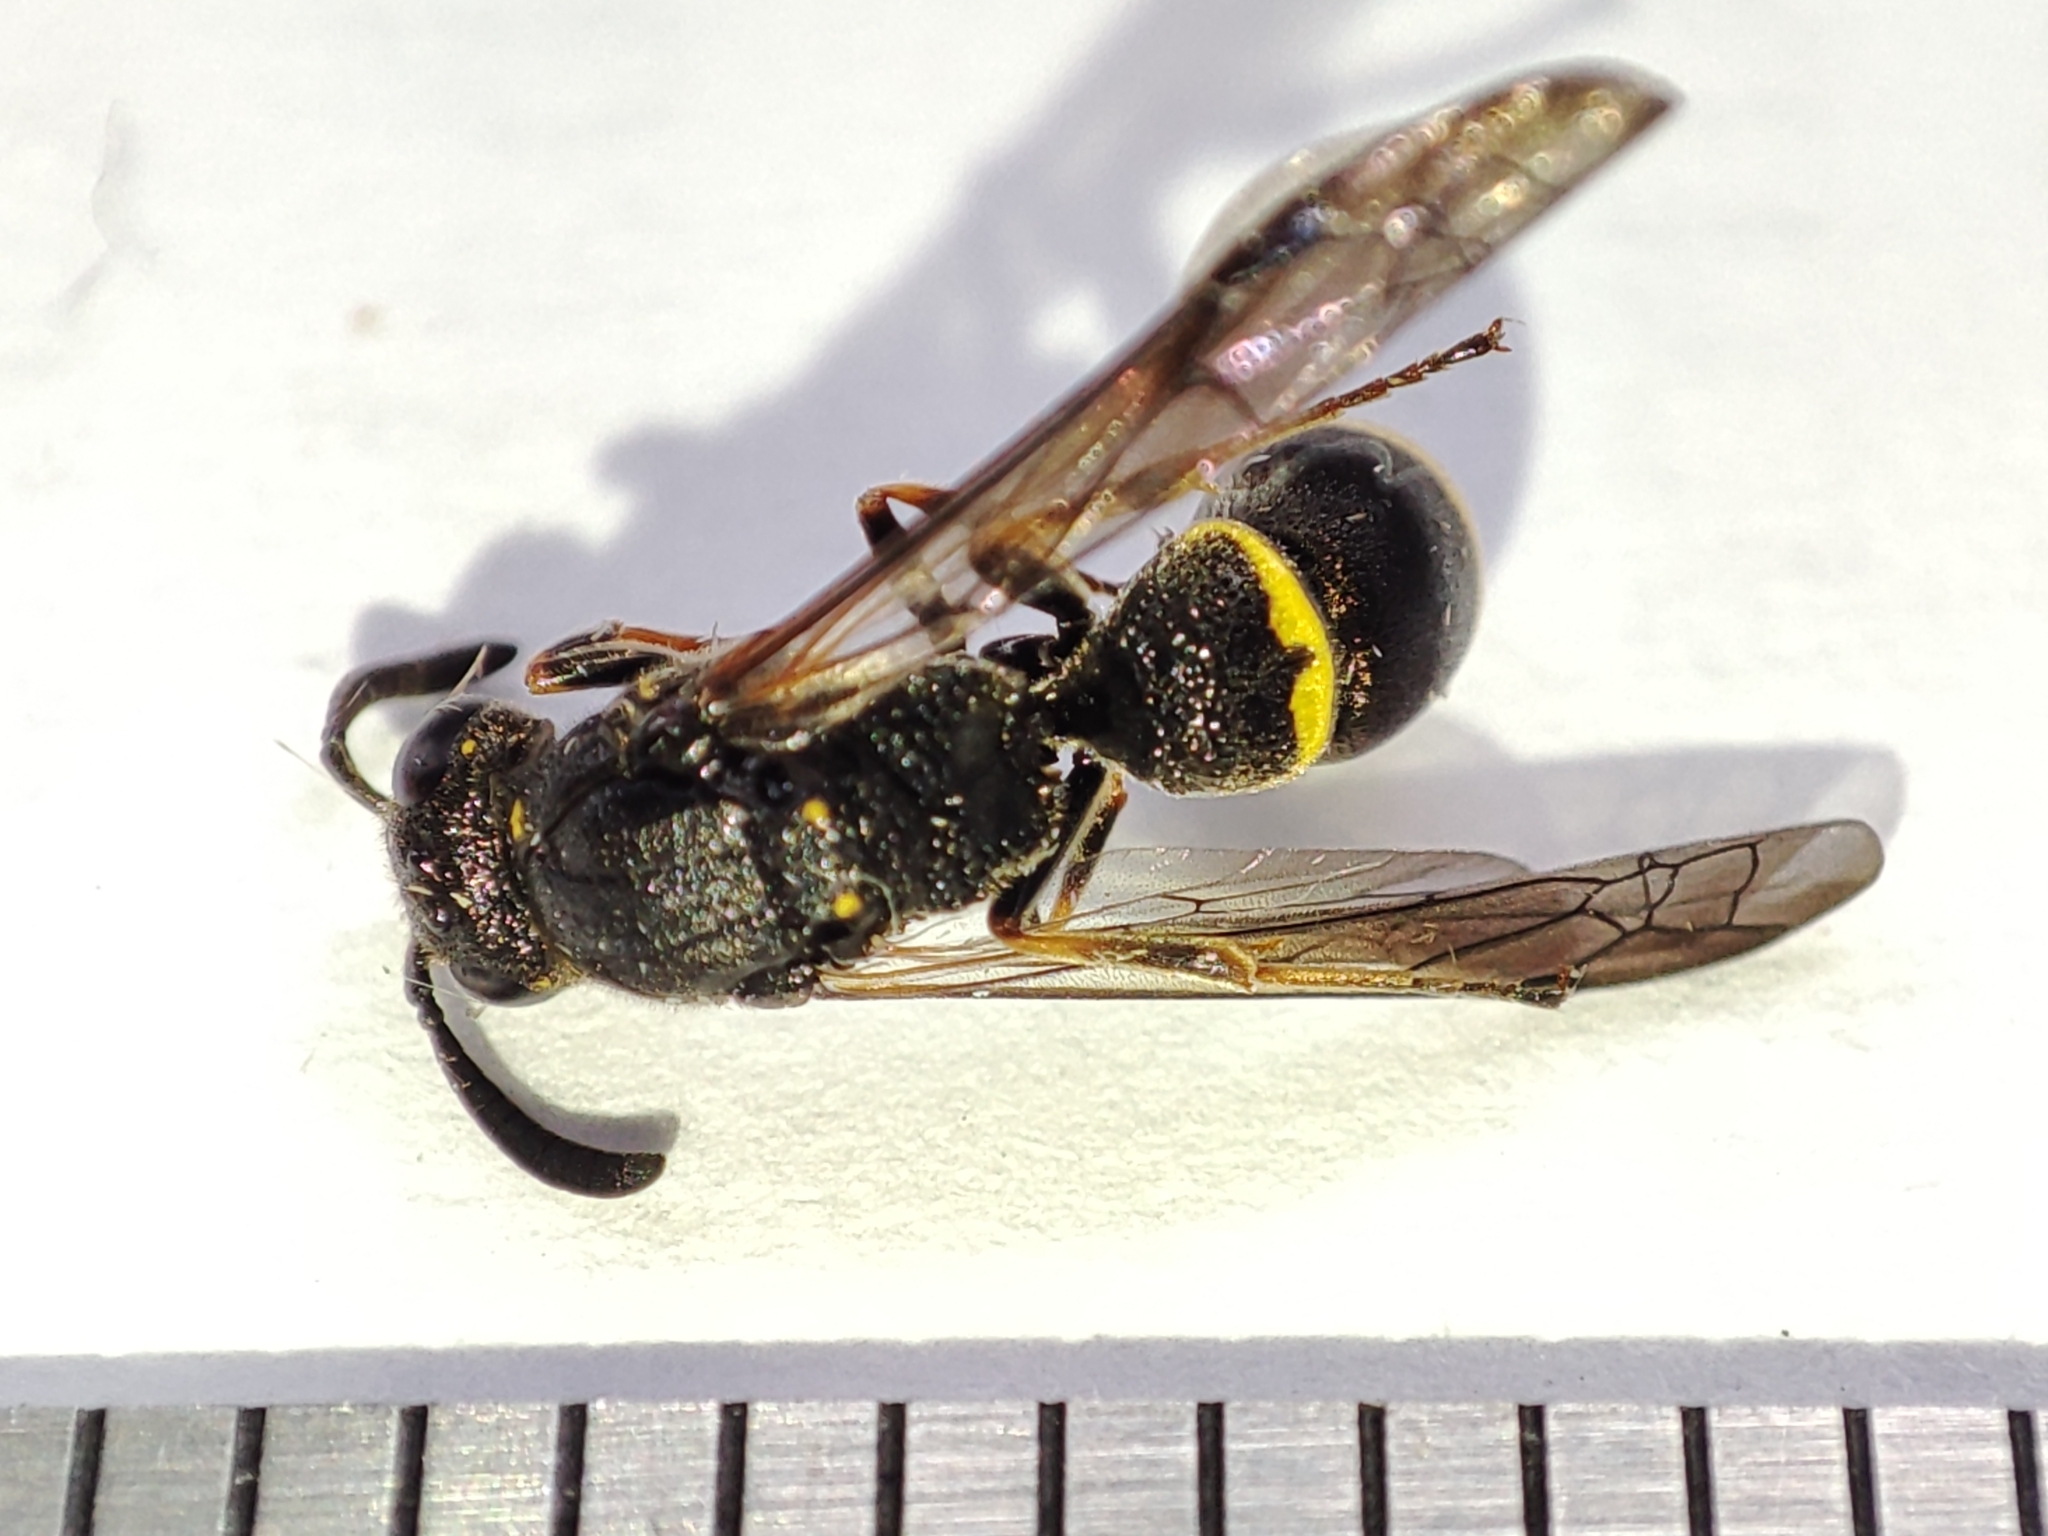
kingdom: Animalia
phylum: Arthropoda
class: Insecta
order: Hymenoptera
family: Eumenidae
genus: Symmorphus
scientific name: Symmorphus bifasciatus
